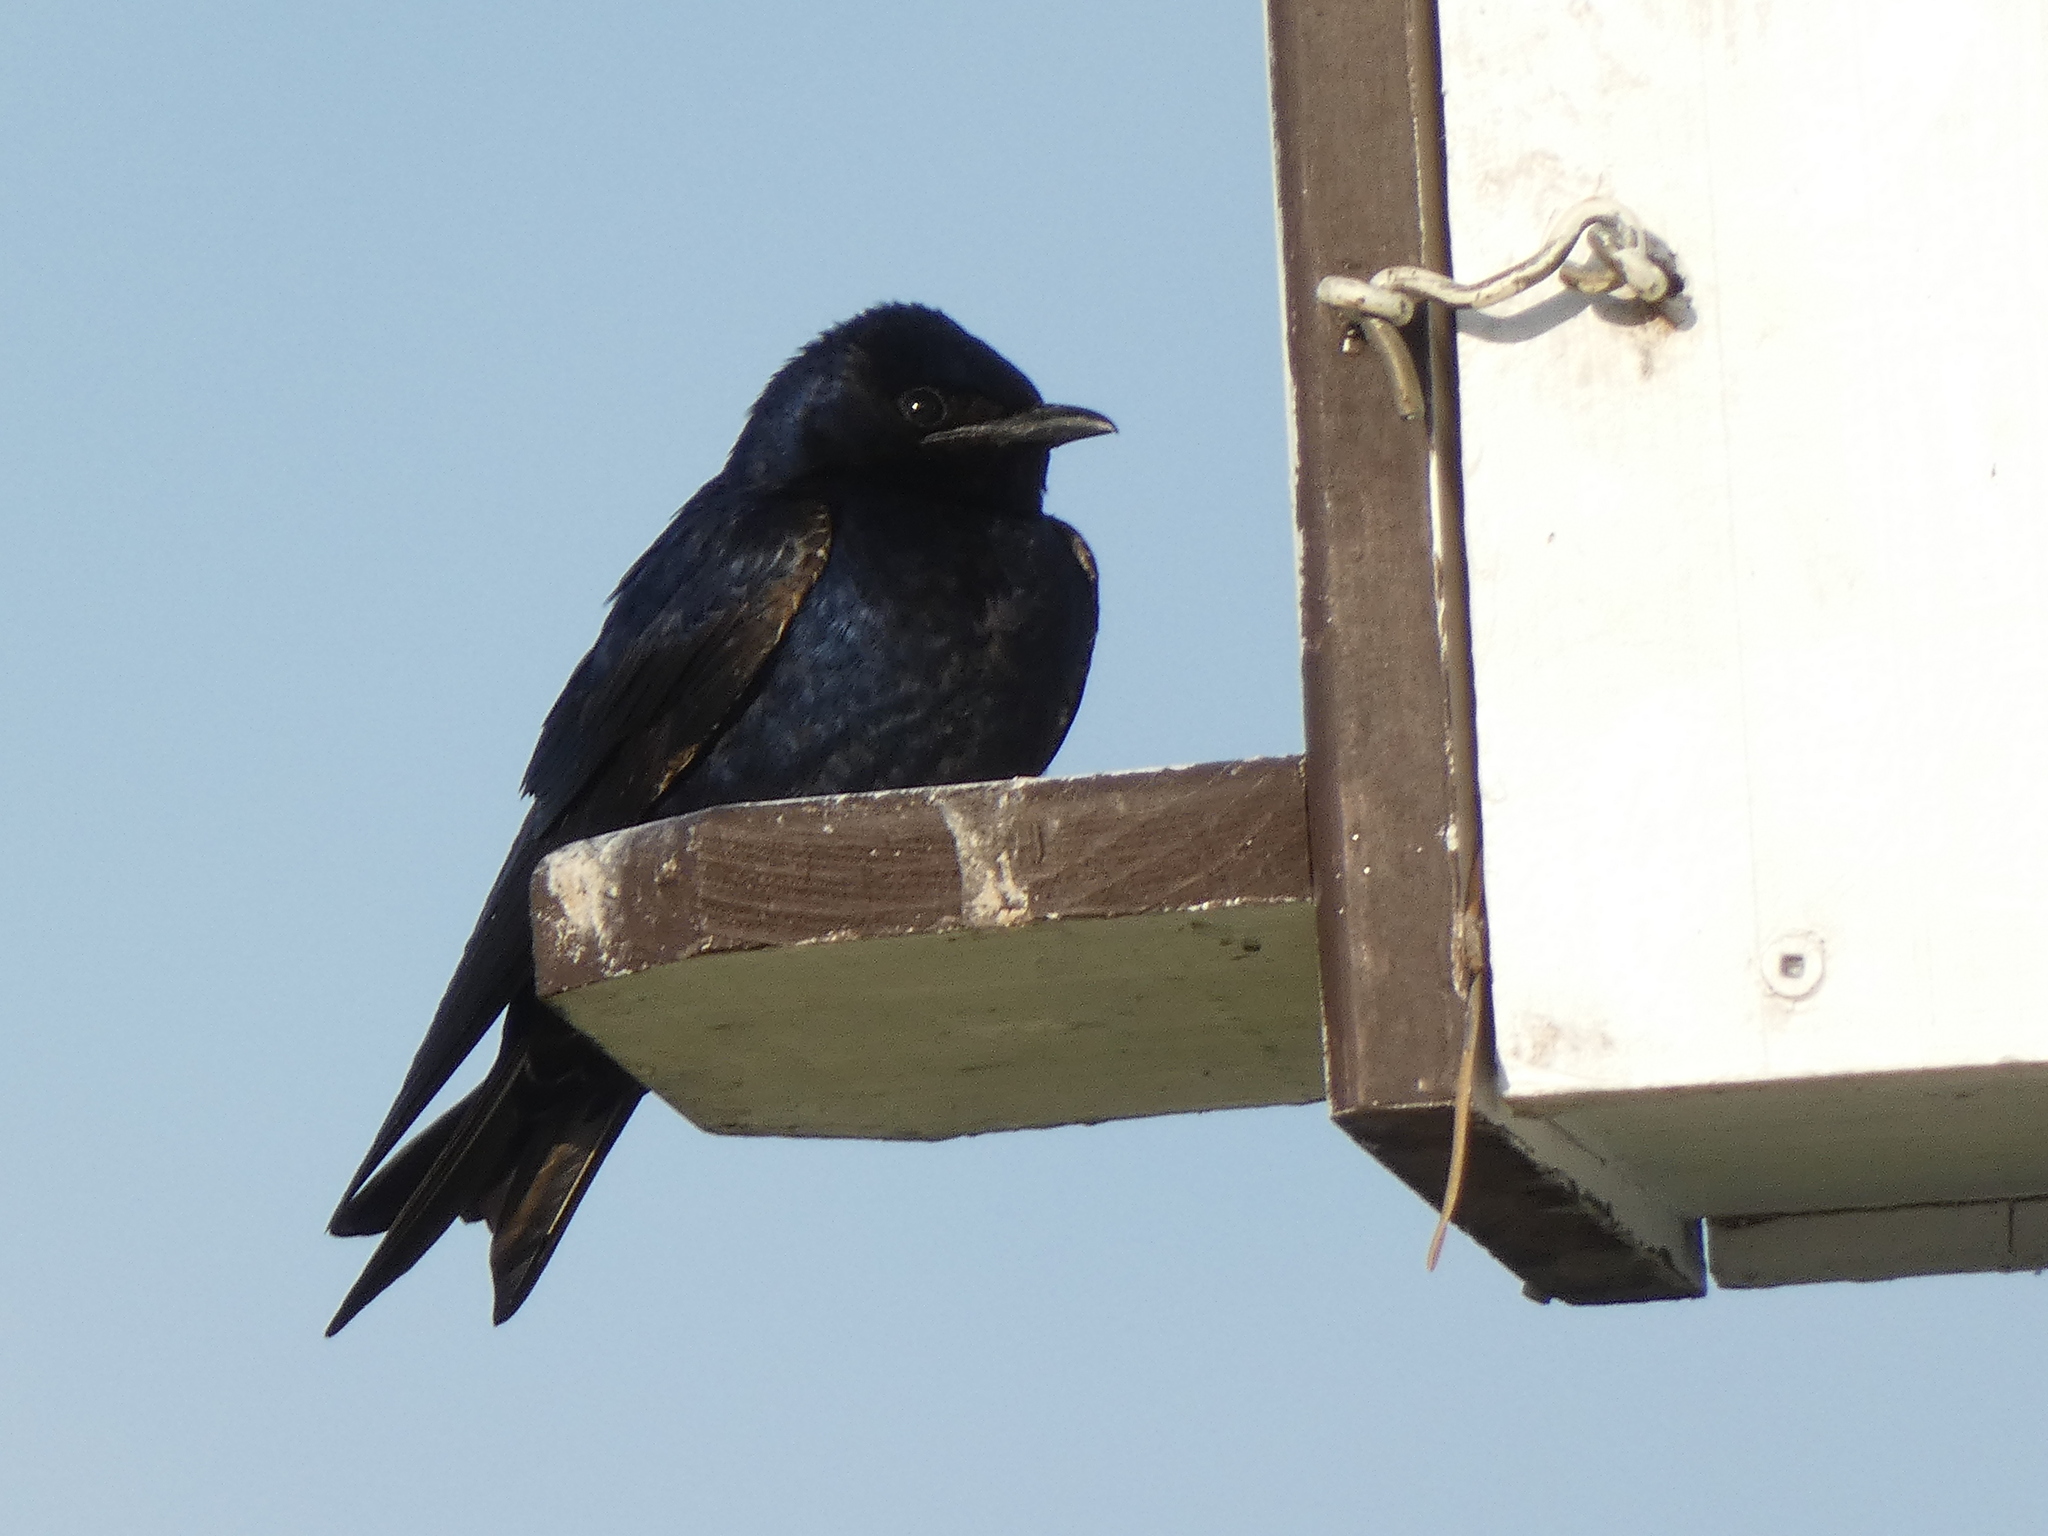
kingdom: Animalia
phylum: Chordata
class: Aves
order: Passeriformes
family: Hirundinidae
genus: Progne
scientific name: Progne subis
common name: Purple martin
